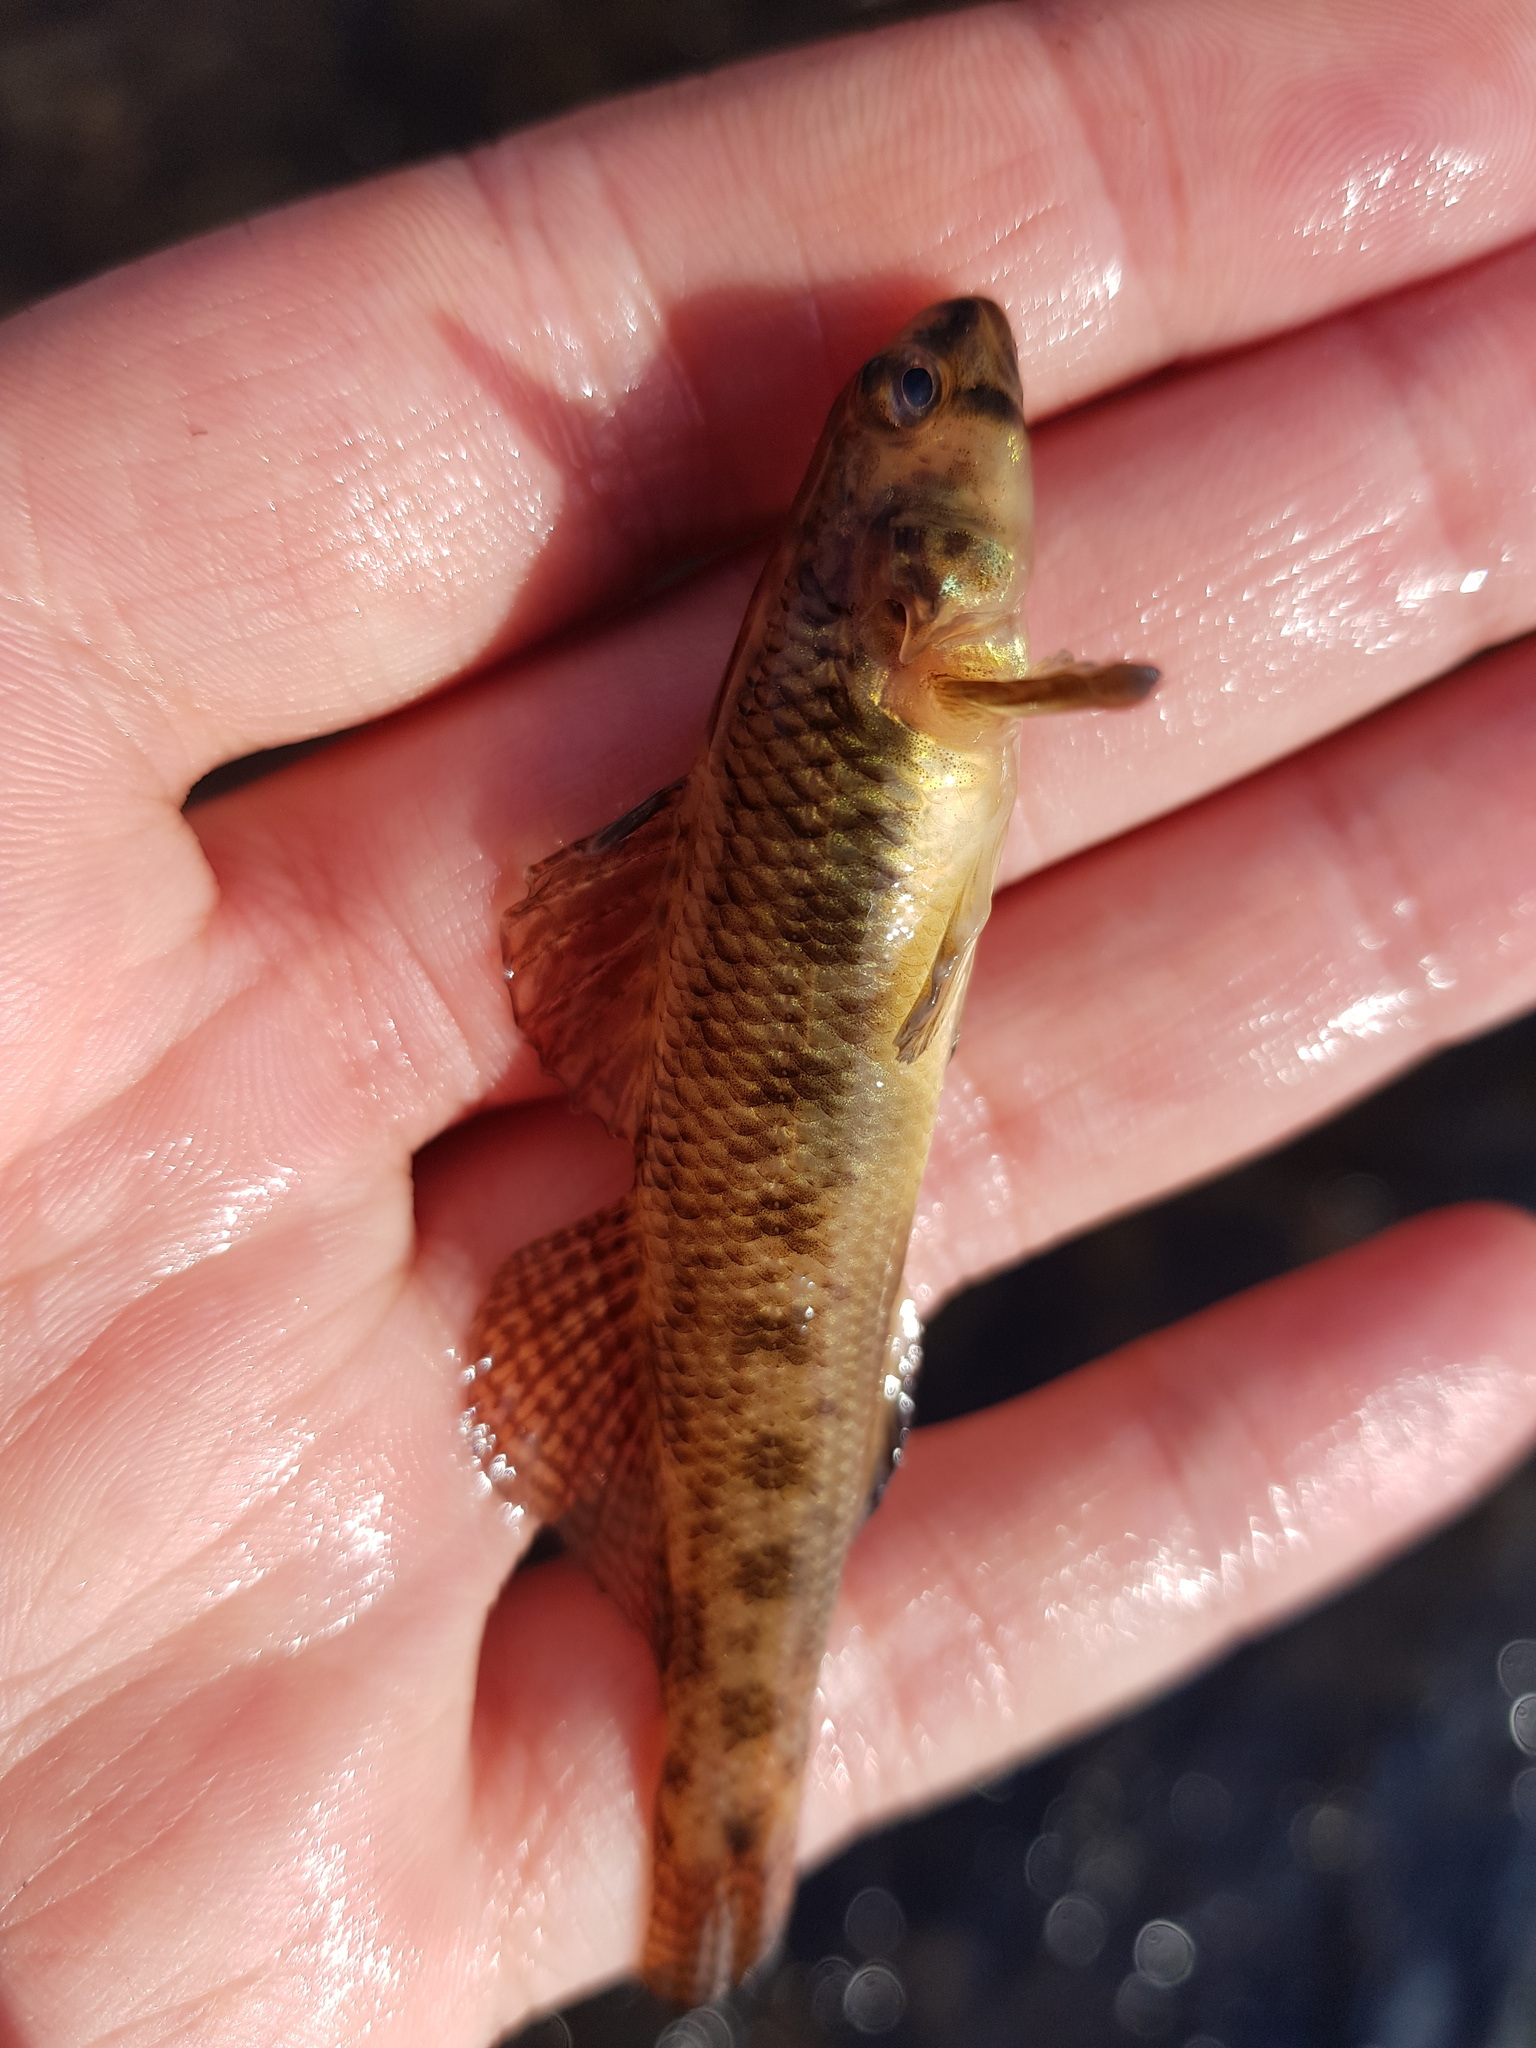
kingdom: Animalia
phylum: Chordata
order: Perciformes
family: Percidae
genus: Etheostoma
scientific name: Etheostoma olmstedi
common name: Tessellated darter
